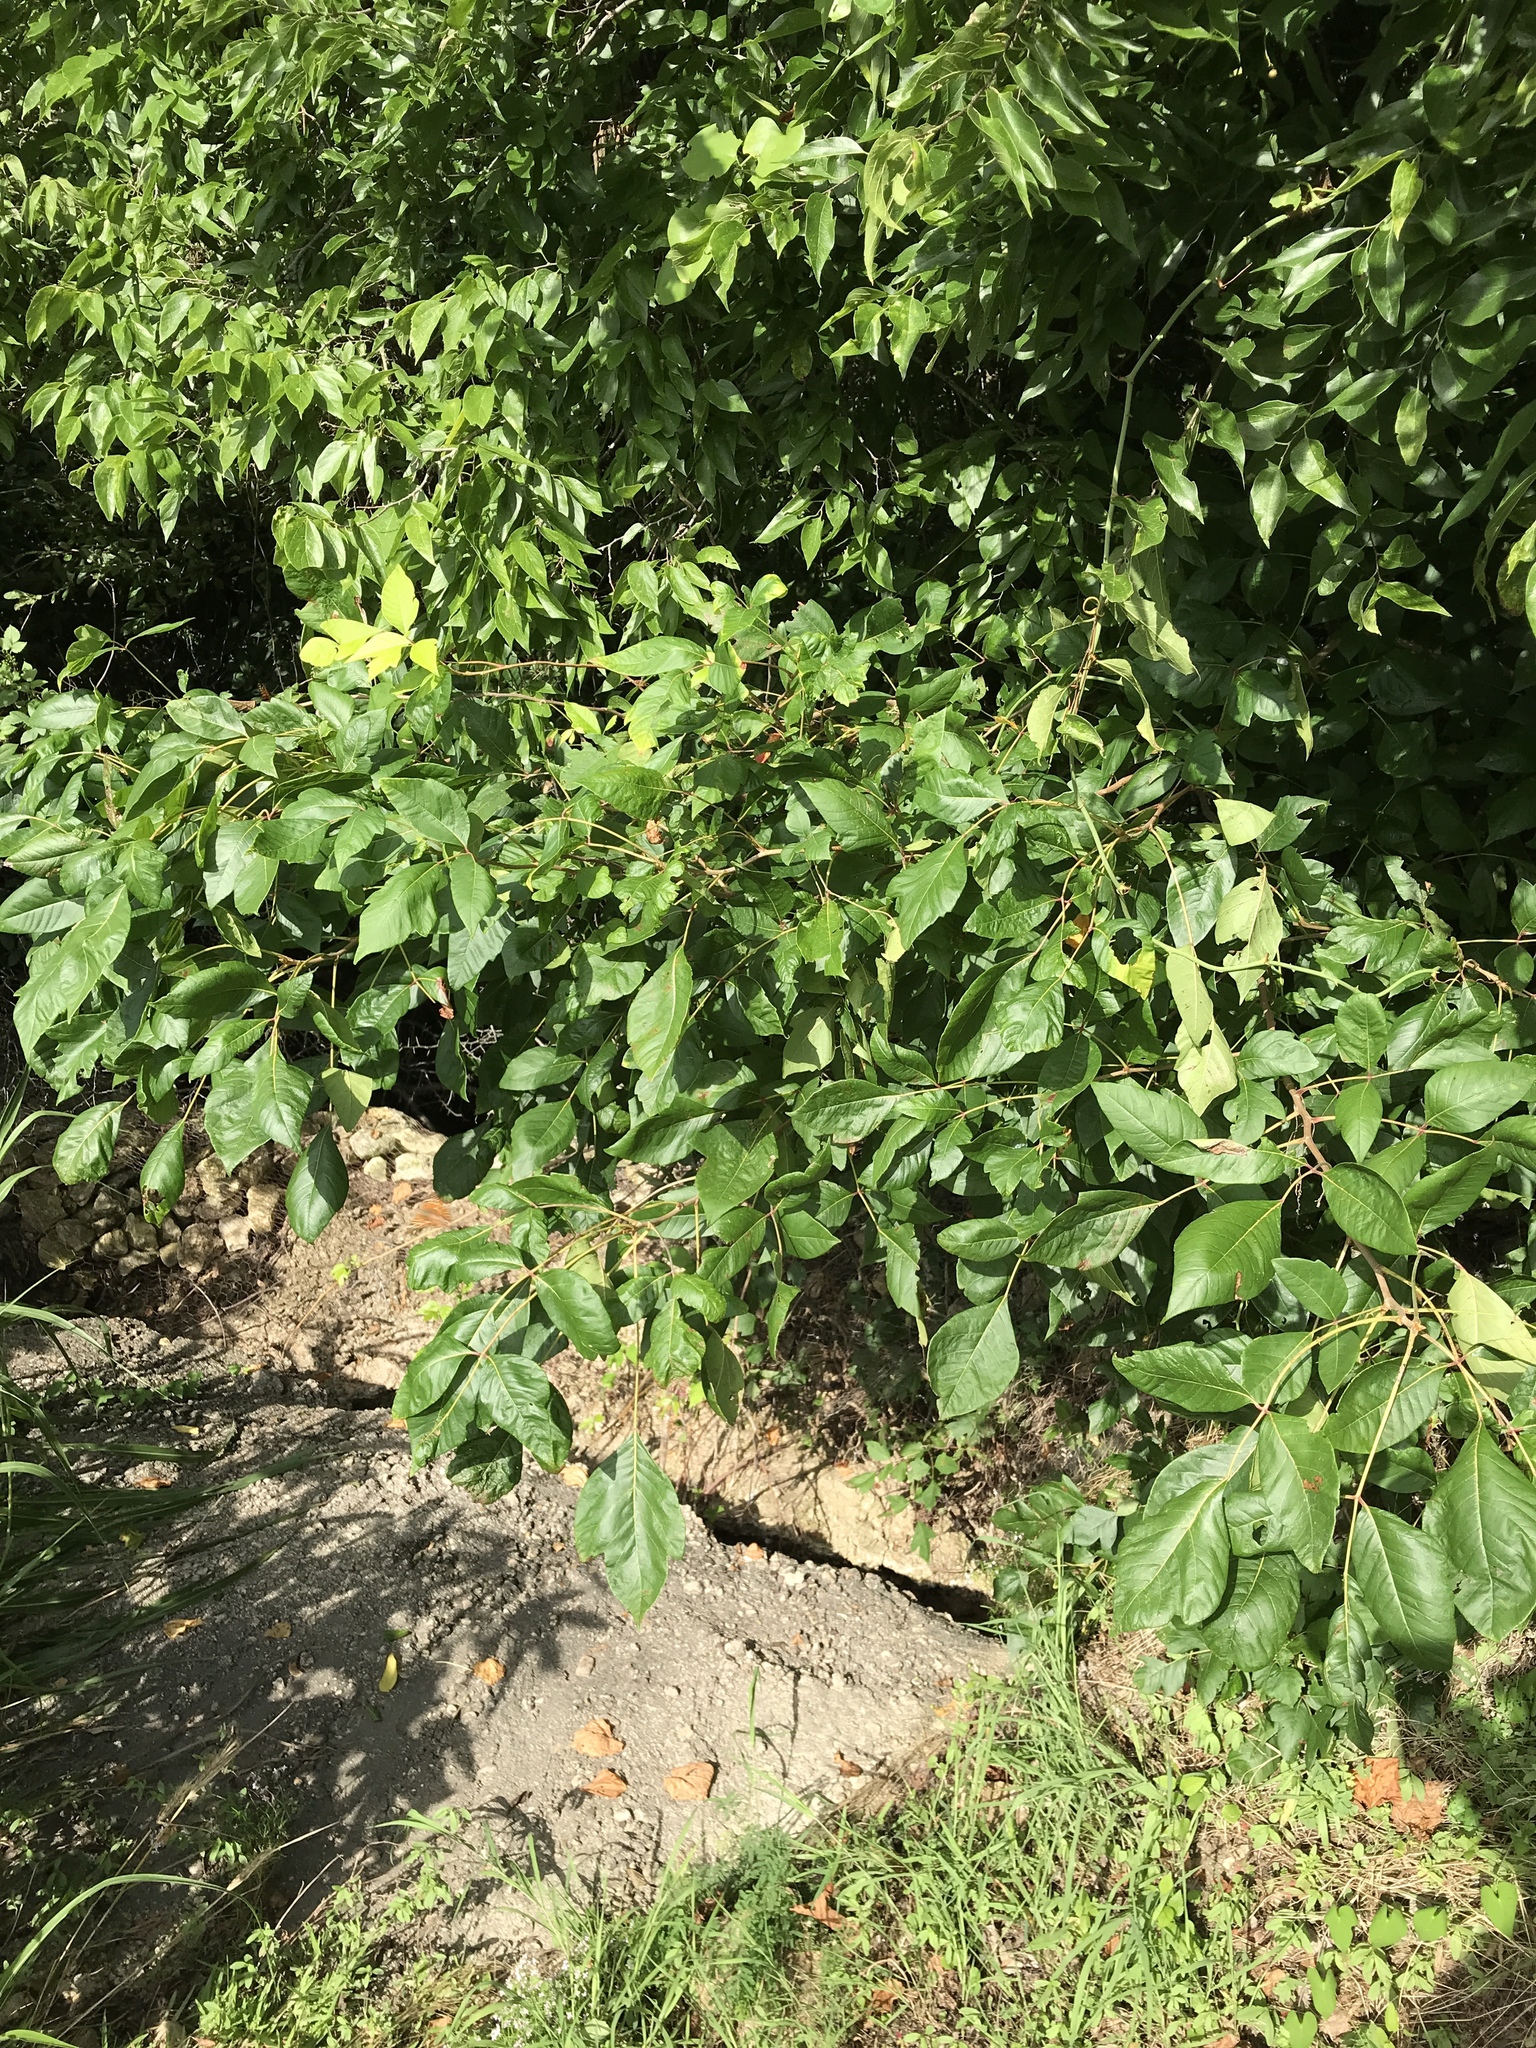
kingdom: Plantae
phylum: Tracheophyta
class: Magnoliopsida
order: Sapindales
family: Anacardiaceae
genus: Toxicodendron
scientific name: Toxicodendron radicans
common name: Poison ivy
